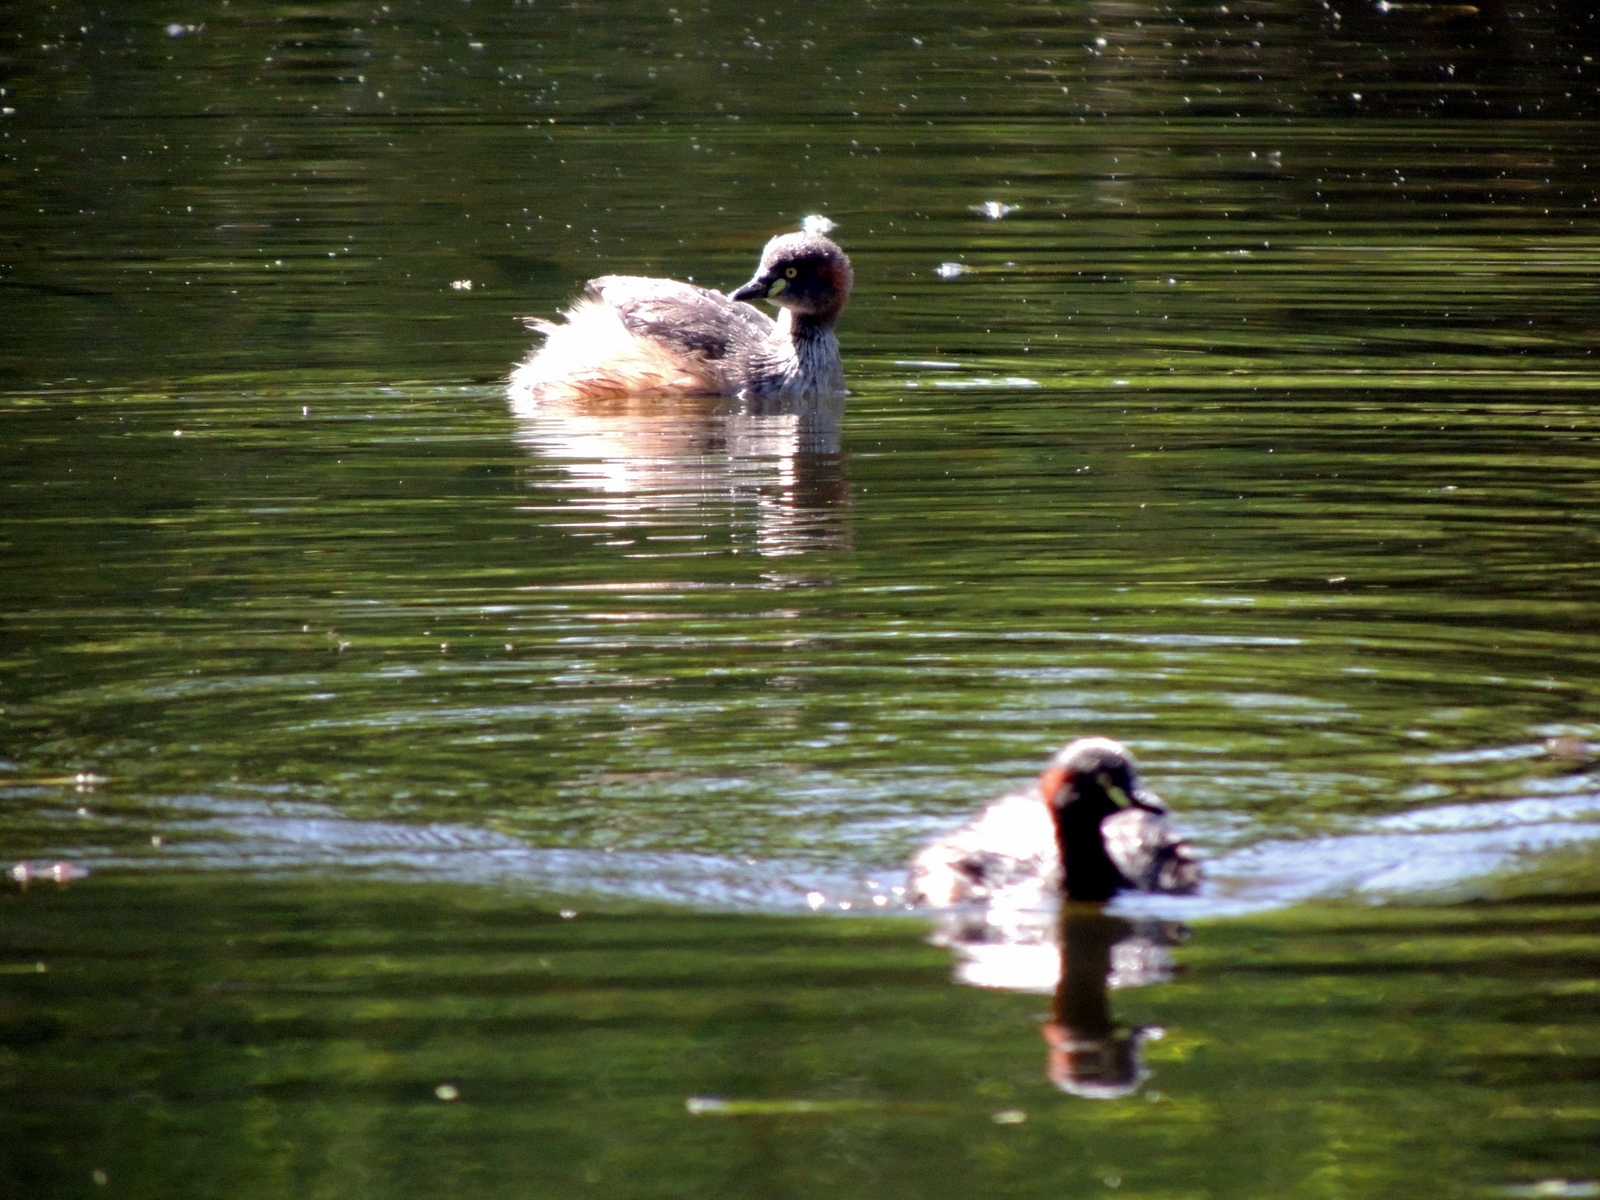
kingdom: Animalia
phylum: Chordata
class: Aves
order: Podicipediformes
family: Podicipedidae
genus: Tachybaptus
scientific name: Tachybaptus novaehollandiae
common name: Australasian grebe
